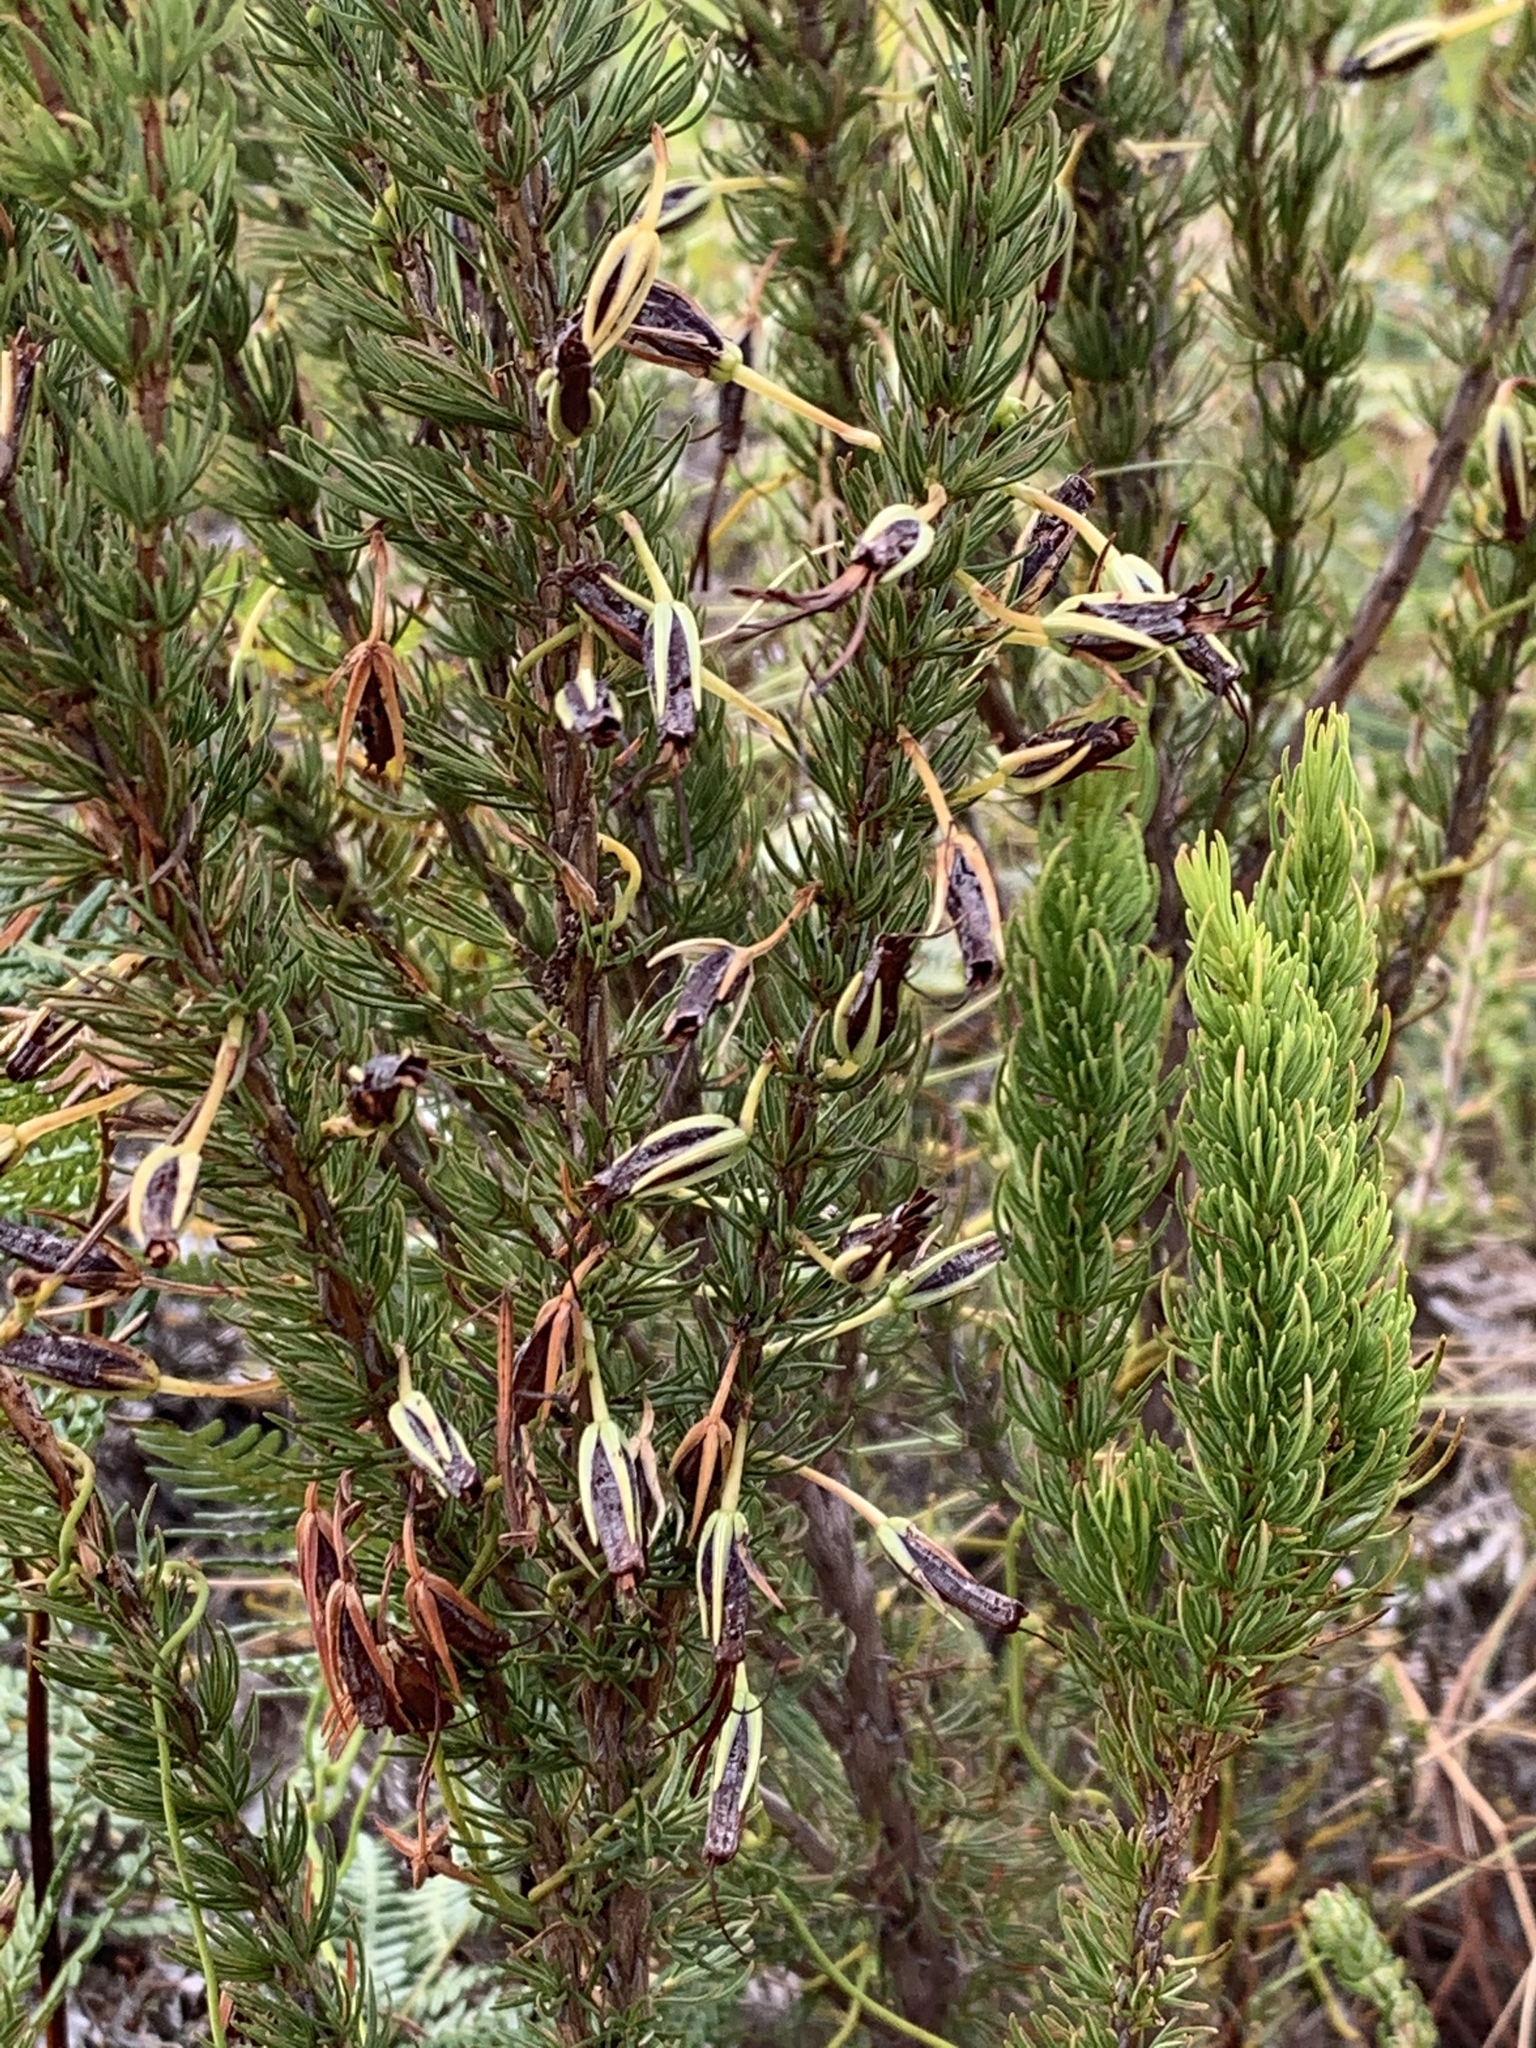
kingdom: Plantae
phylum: Tracheophyta
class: Magnoliopsida
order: Ericales
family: Ericaceae
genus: Erica
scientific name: Erica plukenetii
